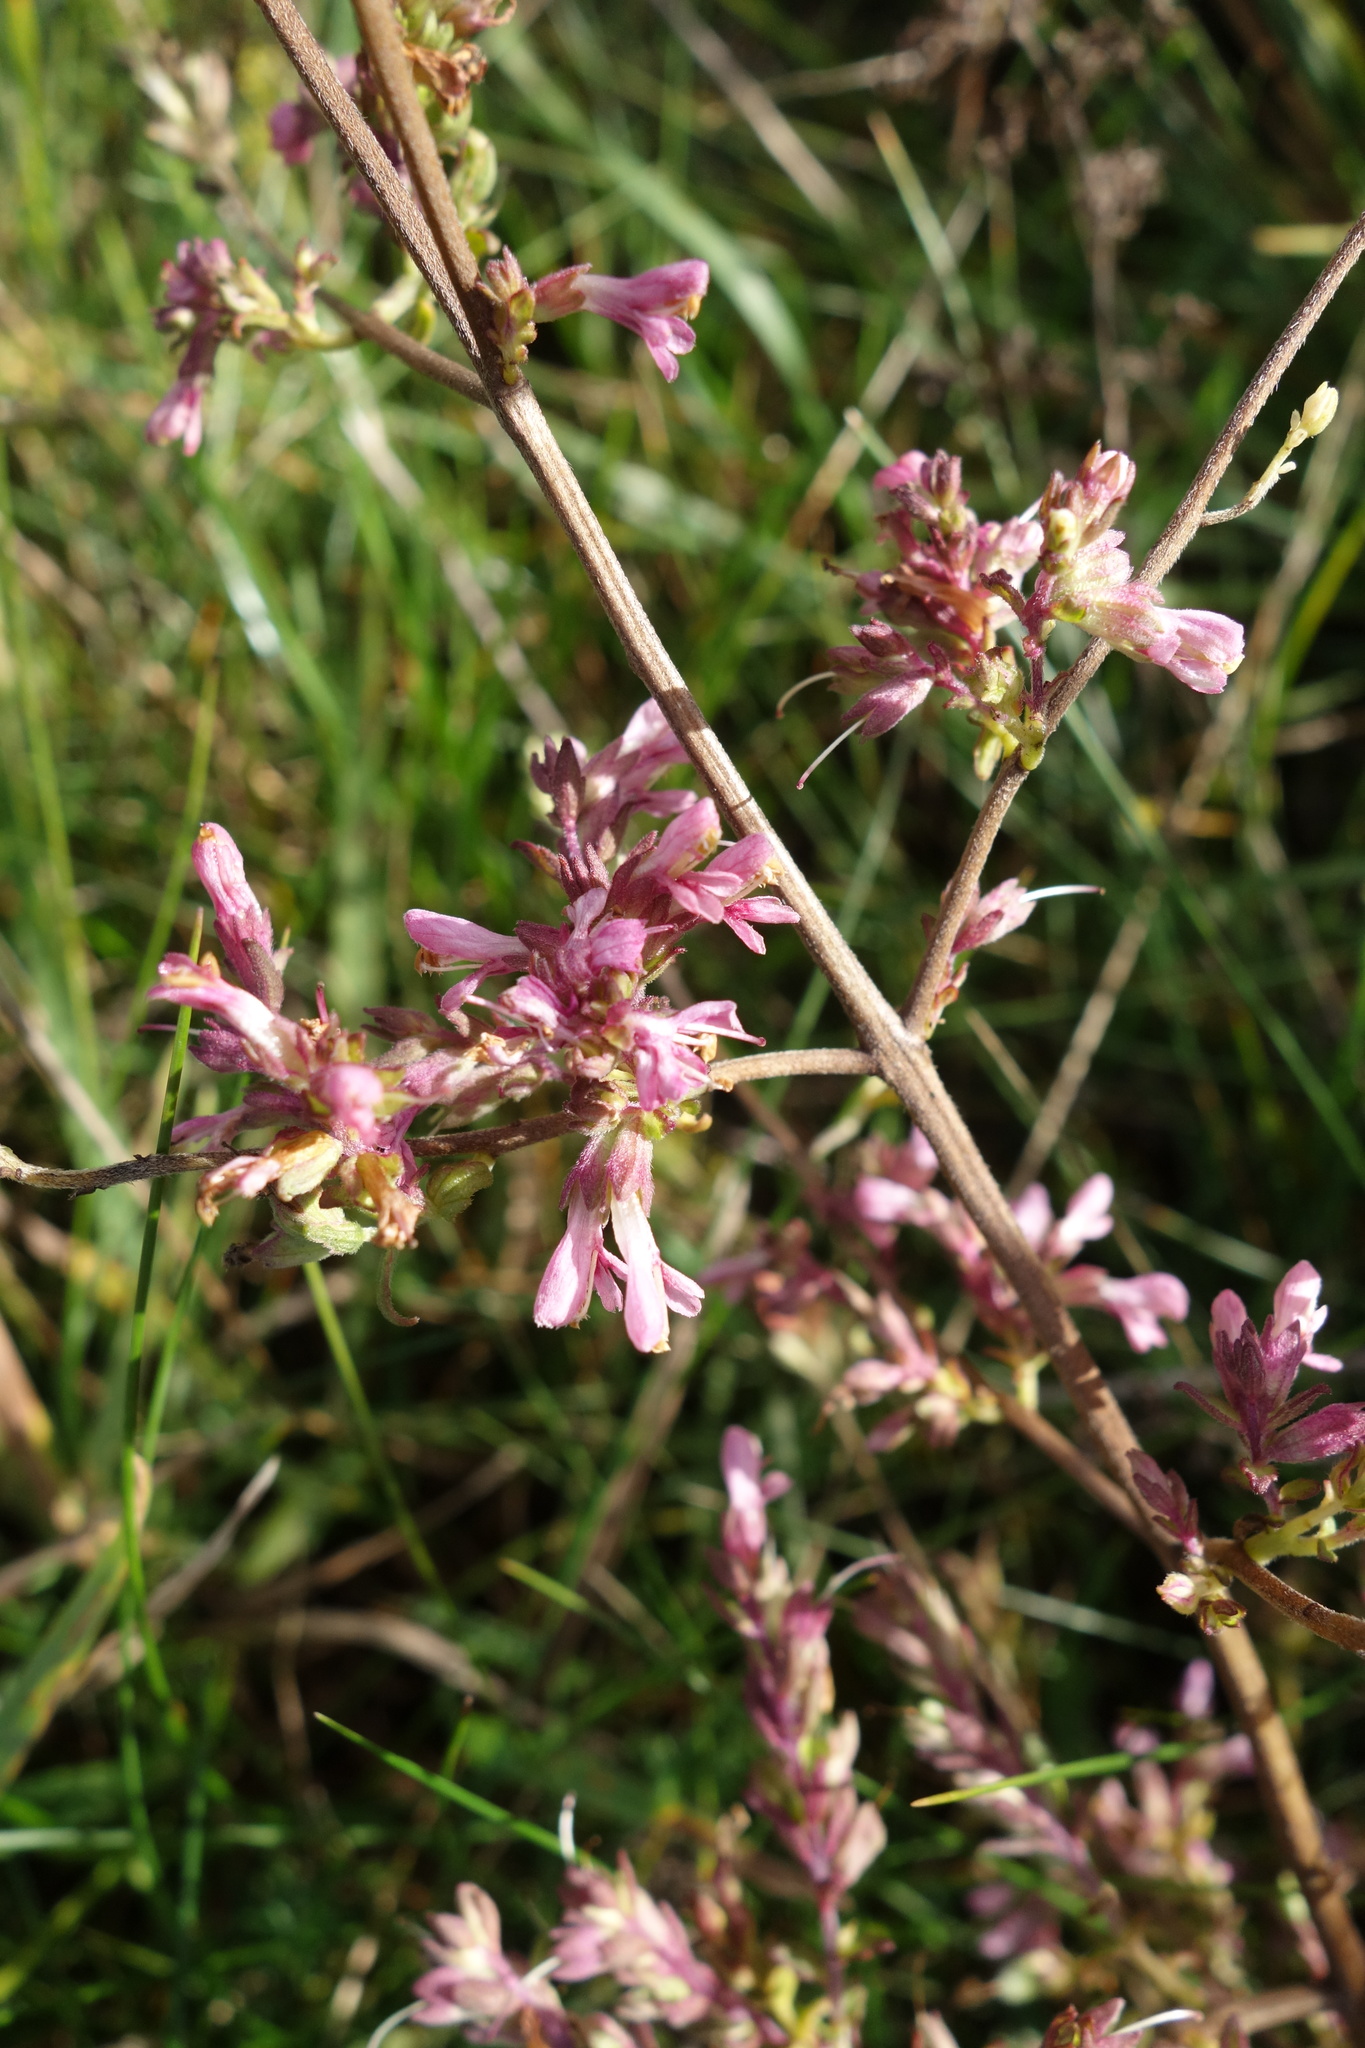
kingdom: Plantae
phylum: Tracheophyta
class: Magnoliopsida
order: Lamiales
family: Orobanchaceae
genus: Odontites
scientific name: Odontites vulgaris
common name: Broomrape
